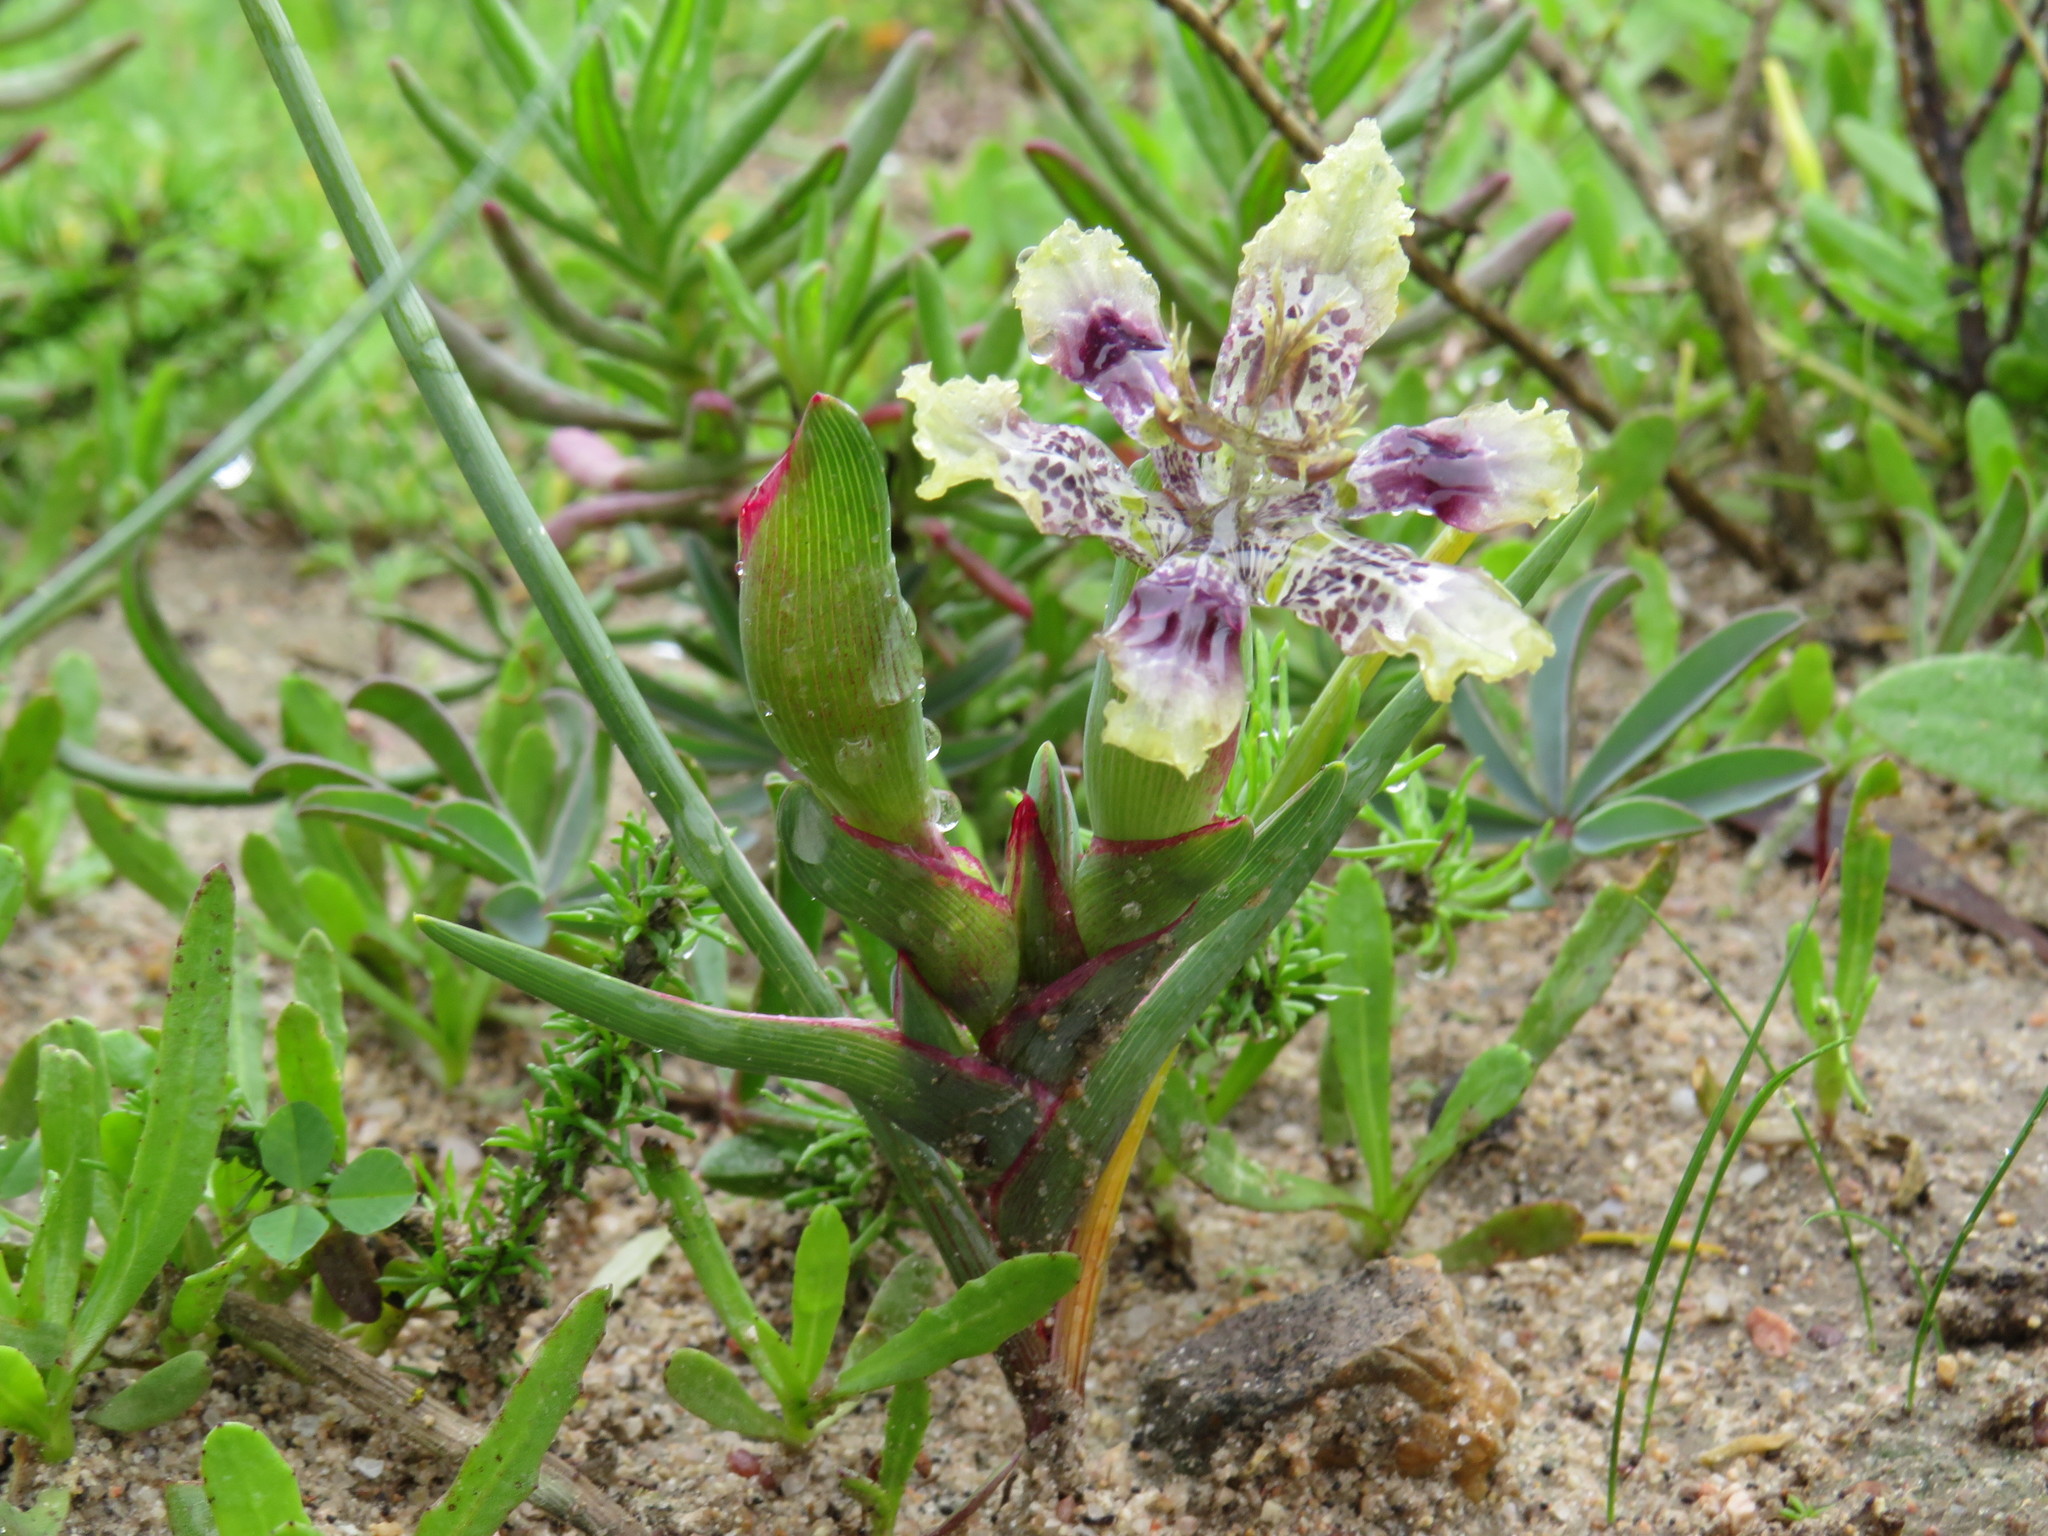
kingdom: Plantae
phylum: Tracheophyta
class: Liliopsida
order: Asparagales
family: Iridaceae
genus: Ferraria
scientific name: Ferraria densepunctulata
